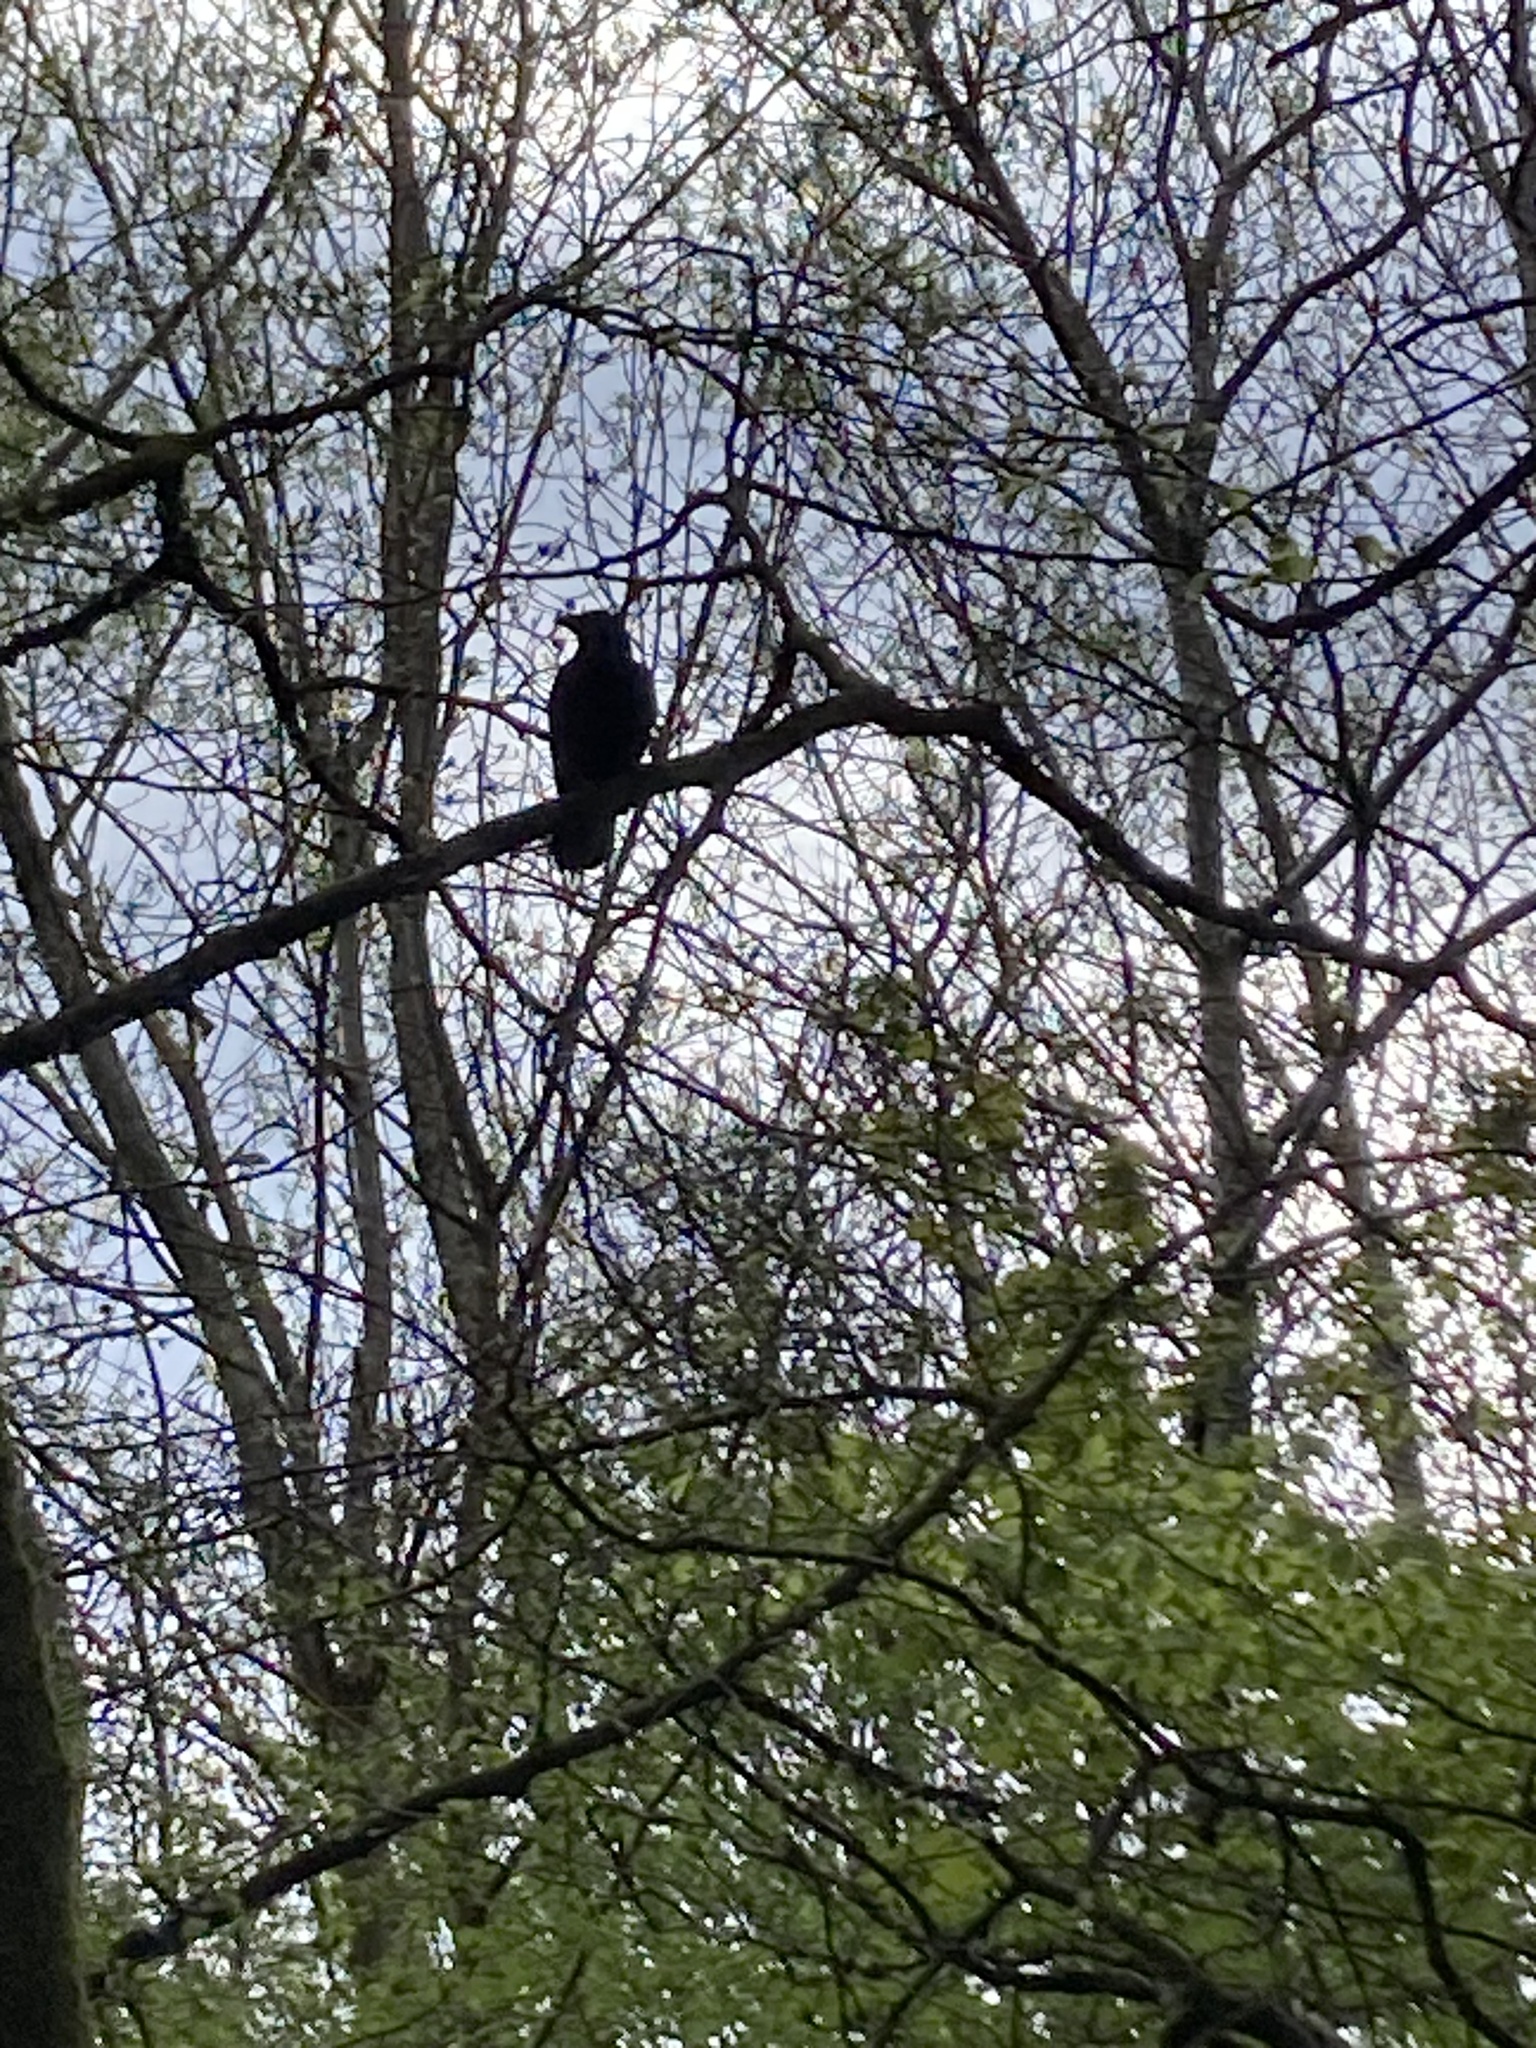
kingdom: Animalia
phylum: Chordata
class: Aves
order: Passeriformes
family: Corvidae
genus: Corvus
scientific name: Corvus corone
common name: Carrion crow
